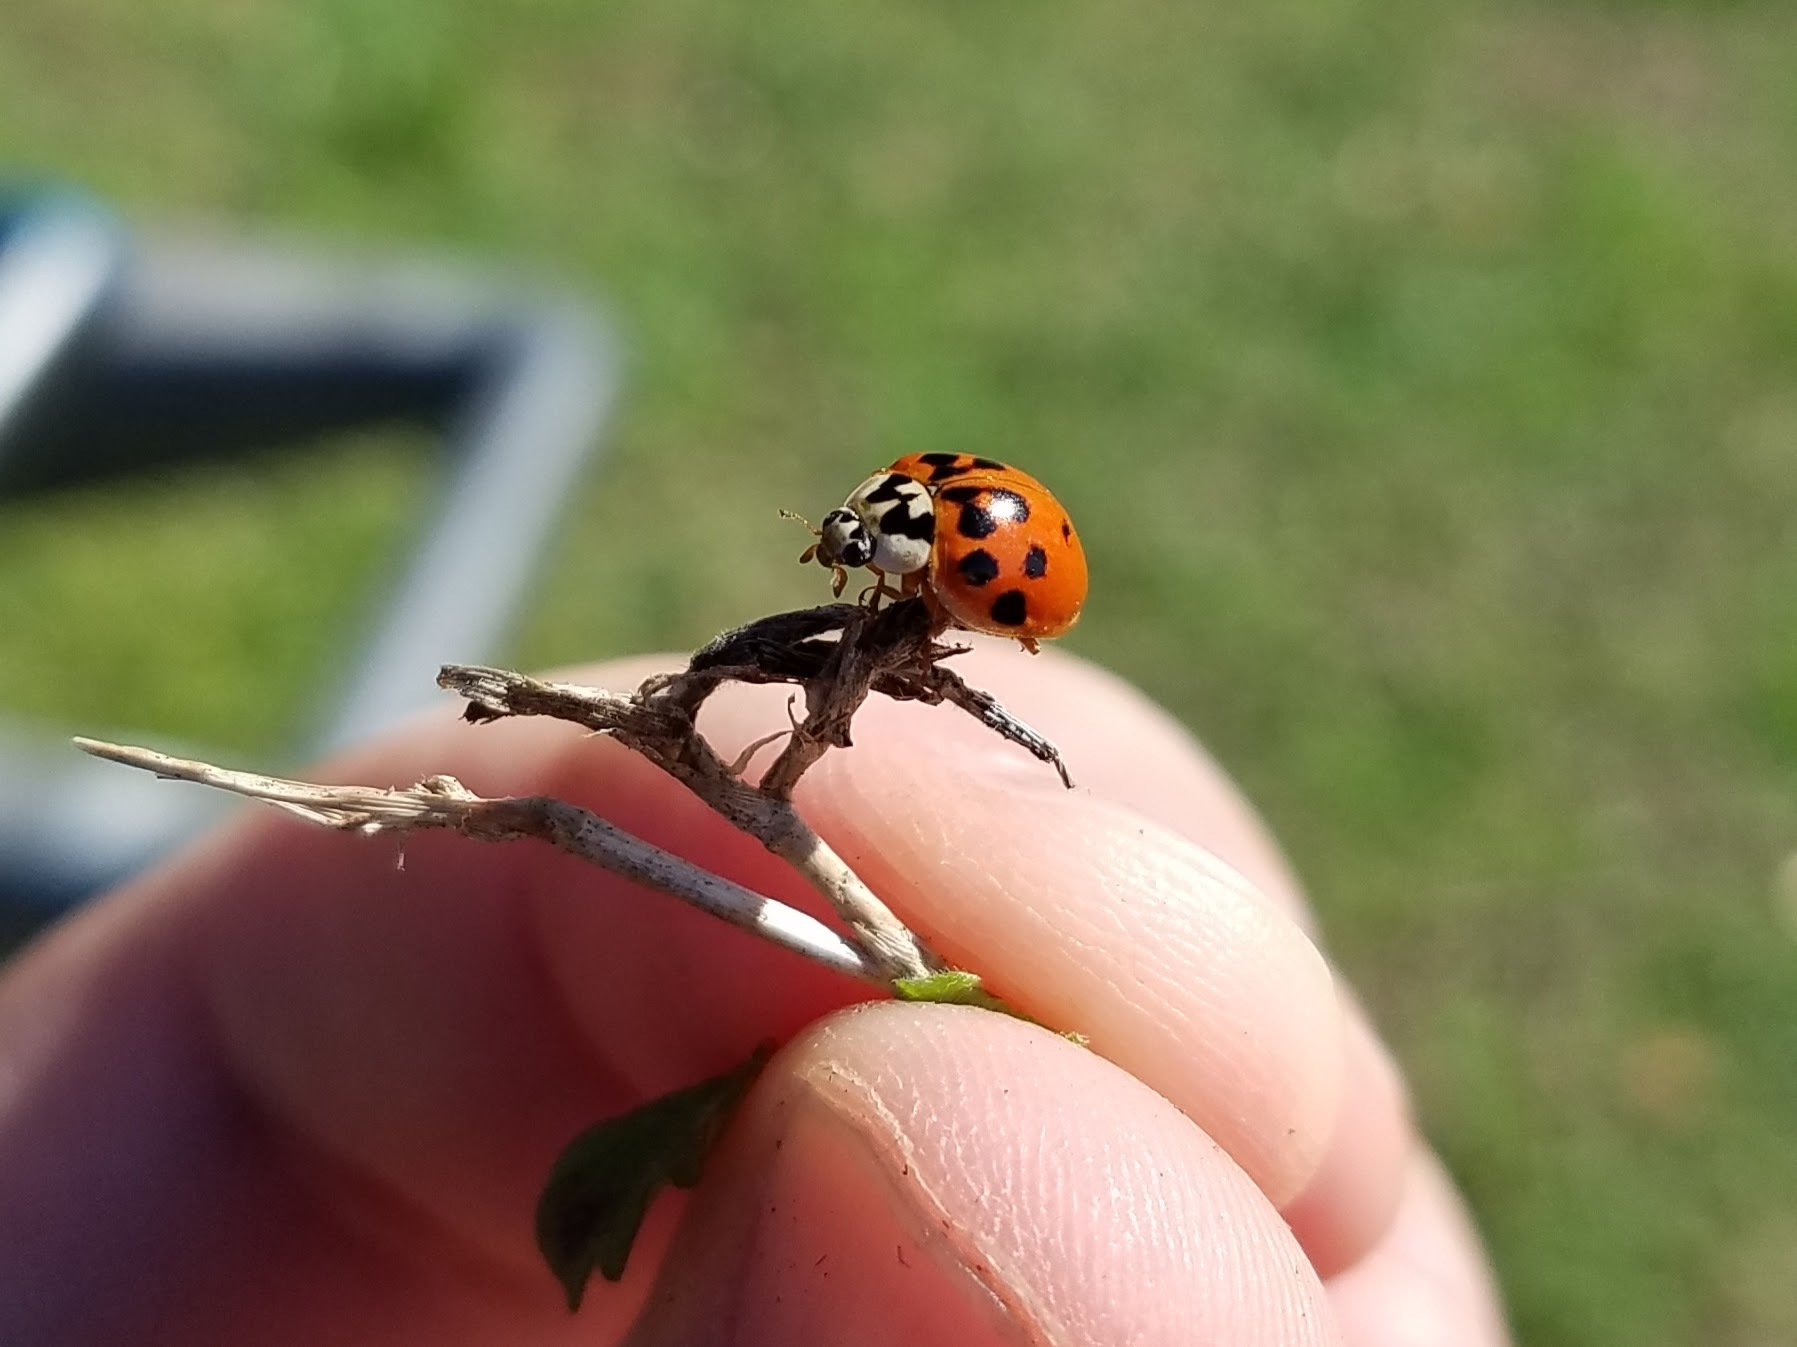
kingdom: Animalia
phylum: Arthropoda
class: Insecta
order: Coleoptera
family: Coccinellidae
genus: Harmonia
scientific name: Harmonia axyridis
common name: Harlequin ladybird
